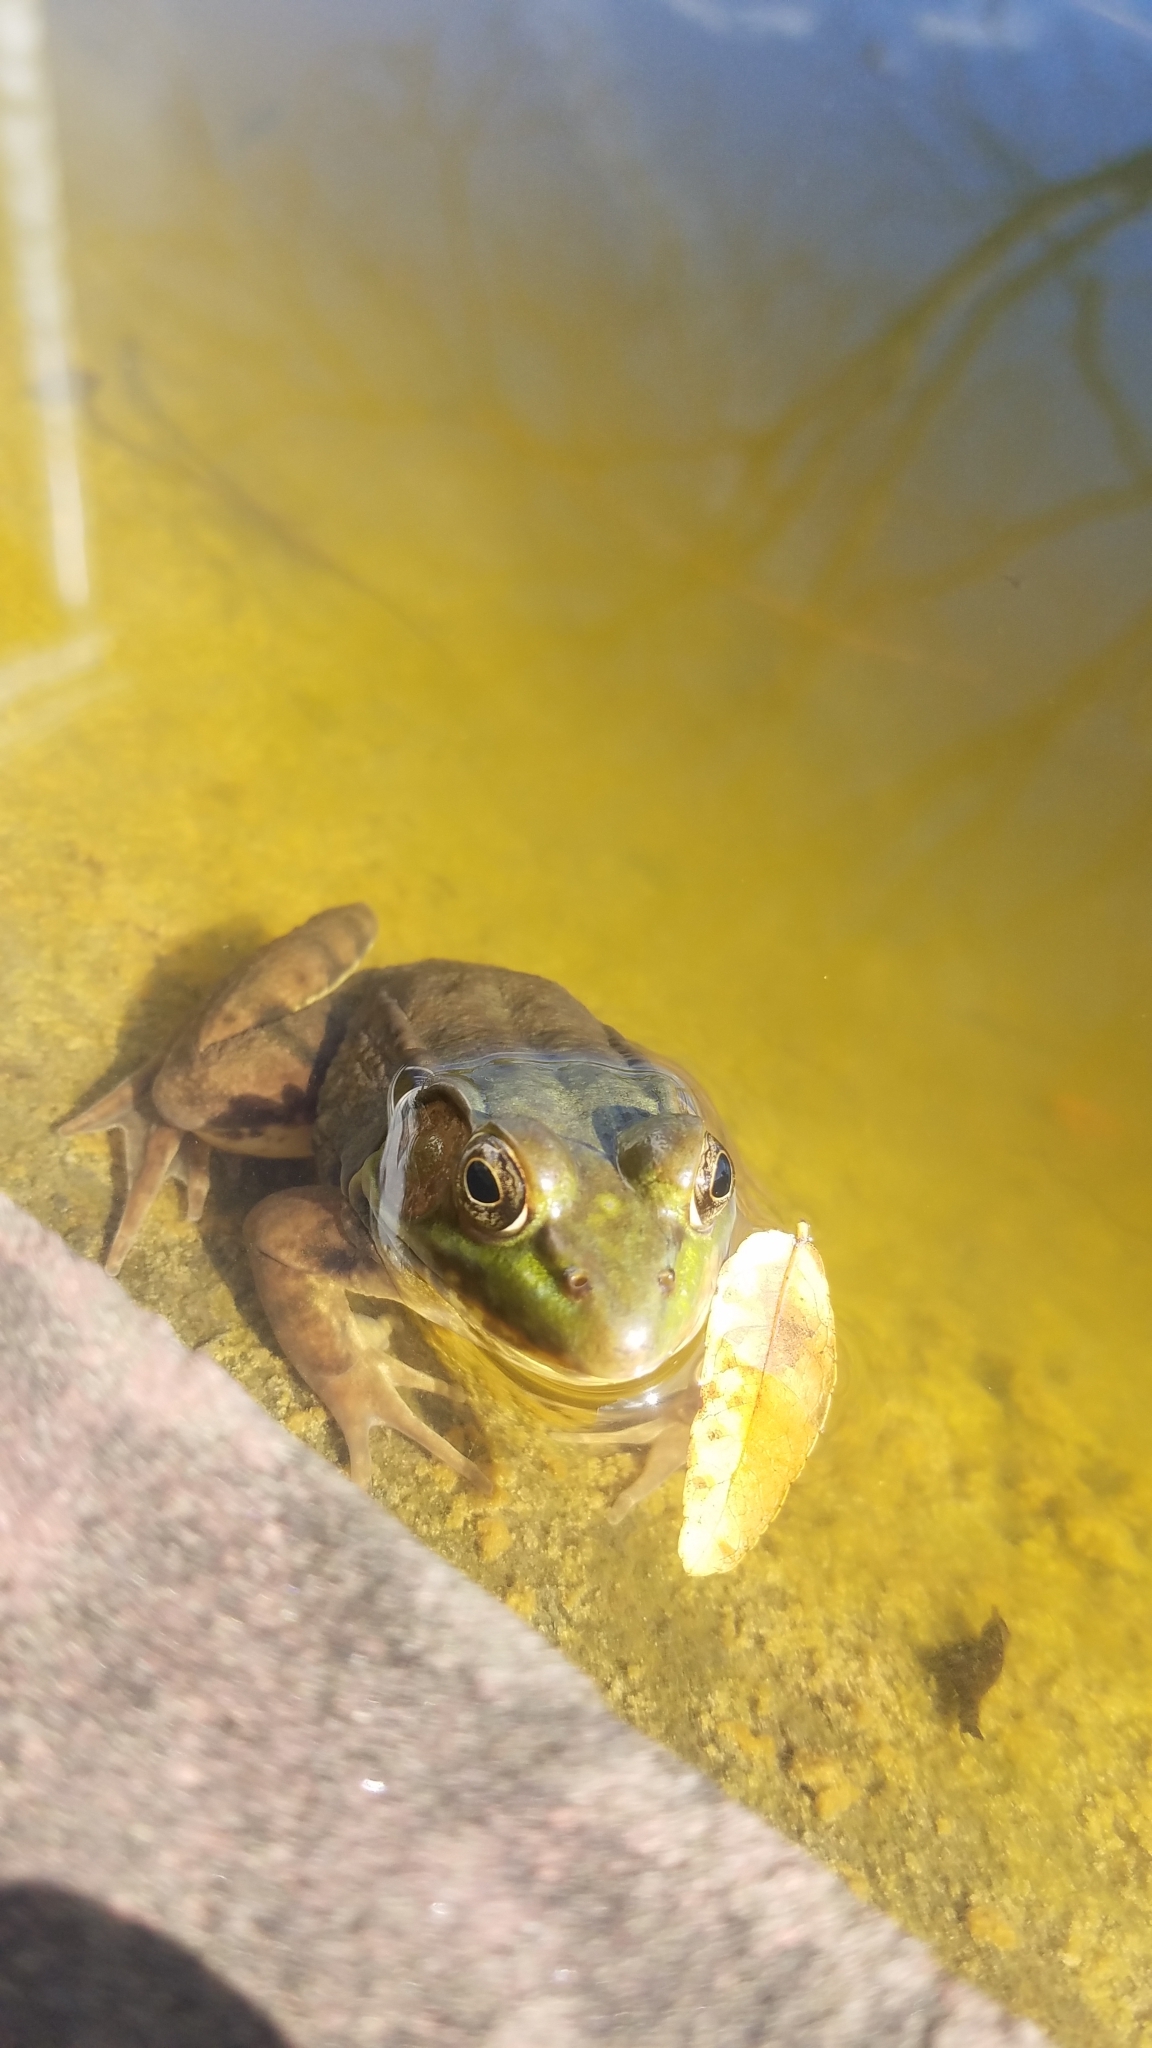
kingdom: Animalia
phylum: Chordata
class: Amphibia
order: Anura
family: Ranidae
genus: Lithobates
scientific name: Lithobates clamitans
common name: Green frog
